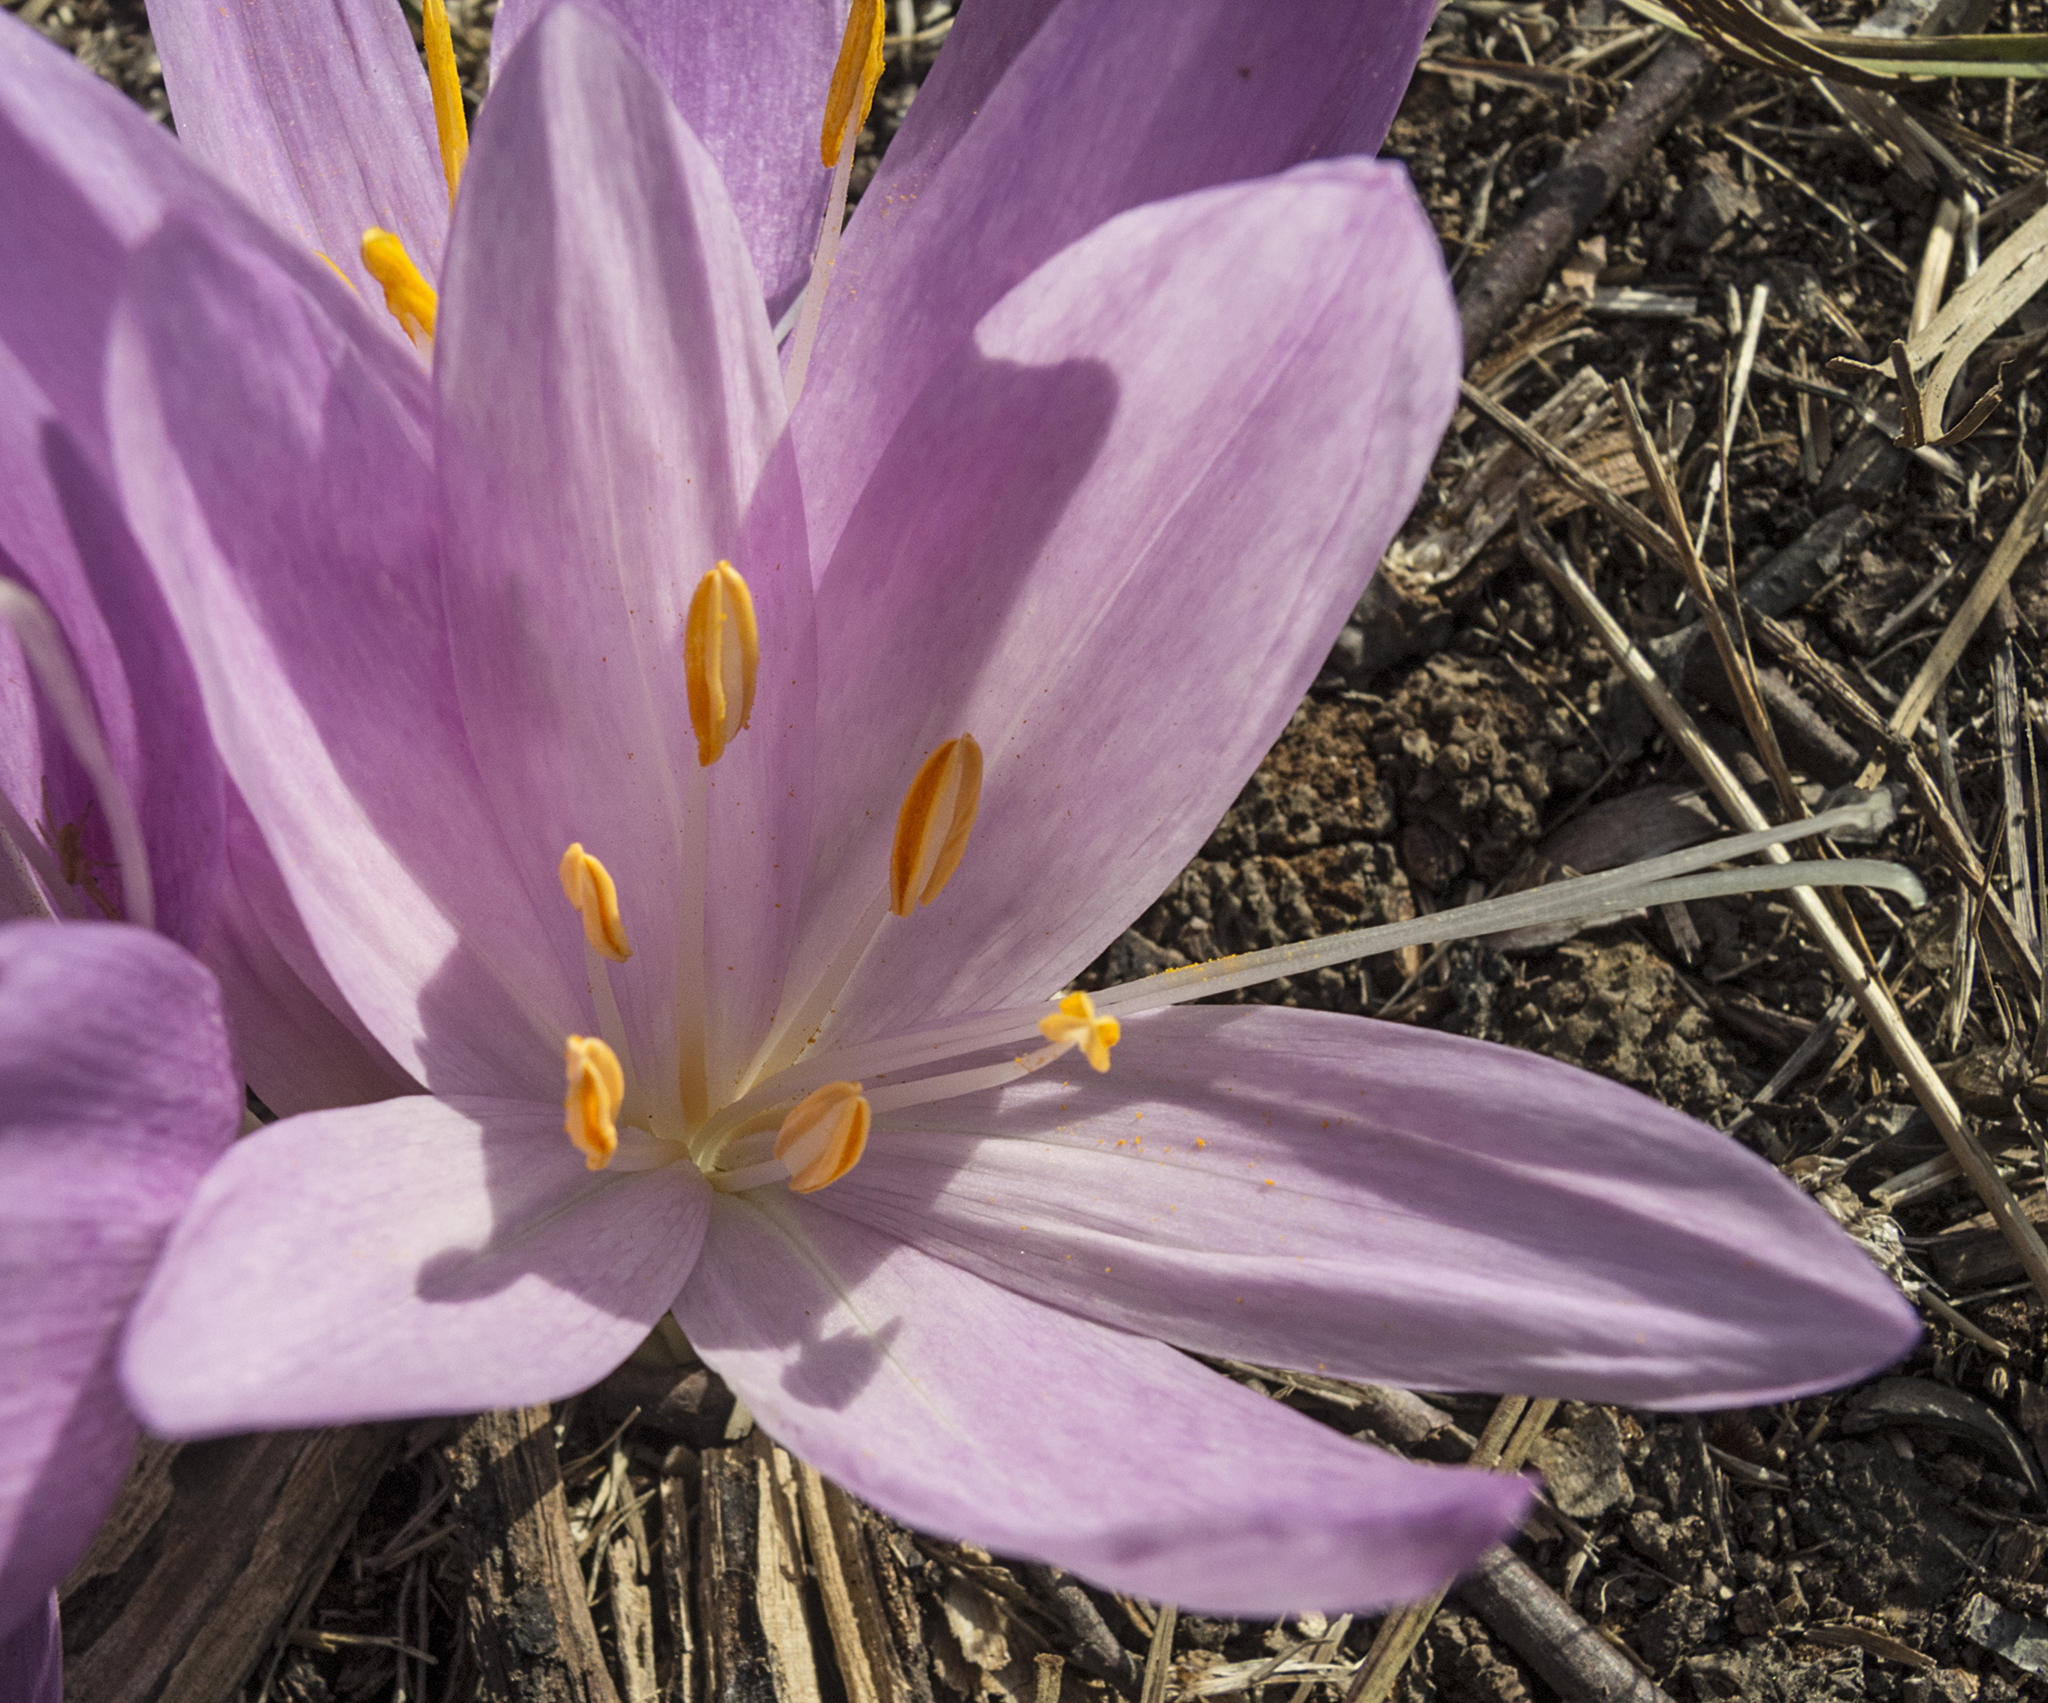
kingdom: Plantae
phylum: Tracheophyta
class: Liliopsida
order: Liliales
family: Colchicaceae
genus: Colchicum
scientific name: Colchicum autumnale
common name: Autumn crocus
